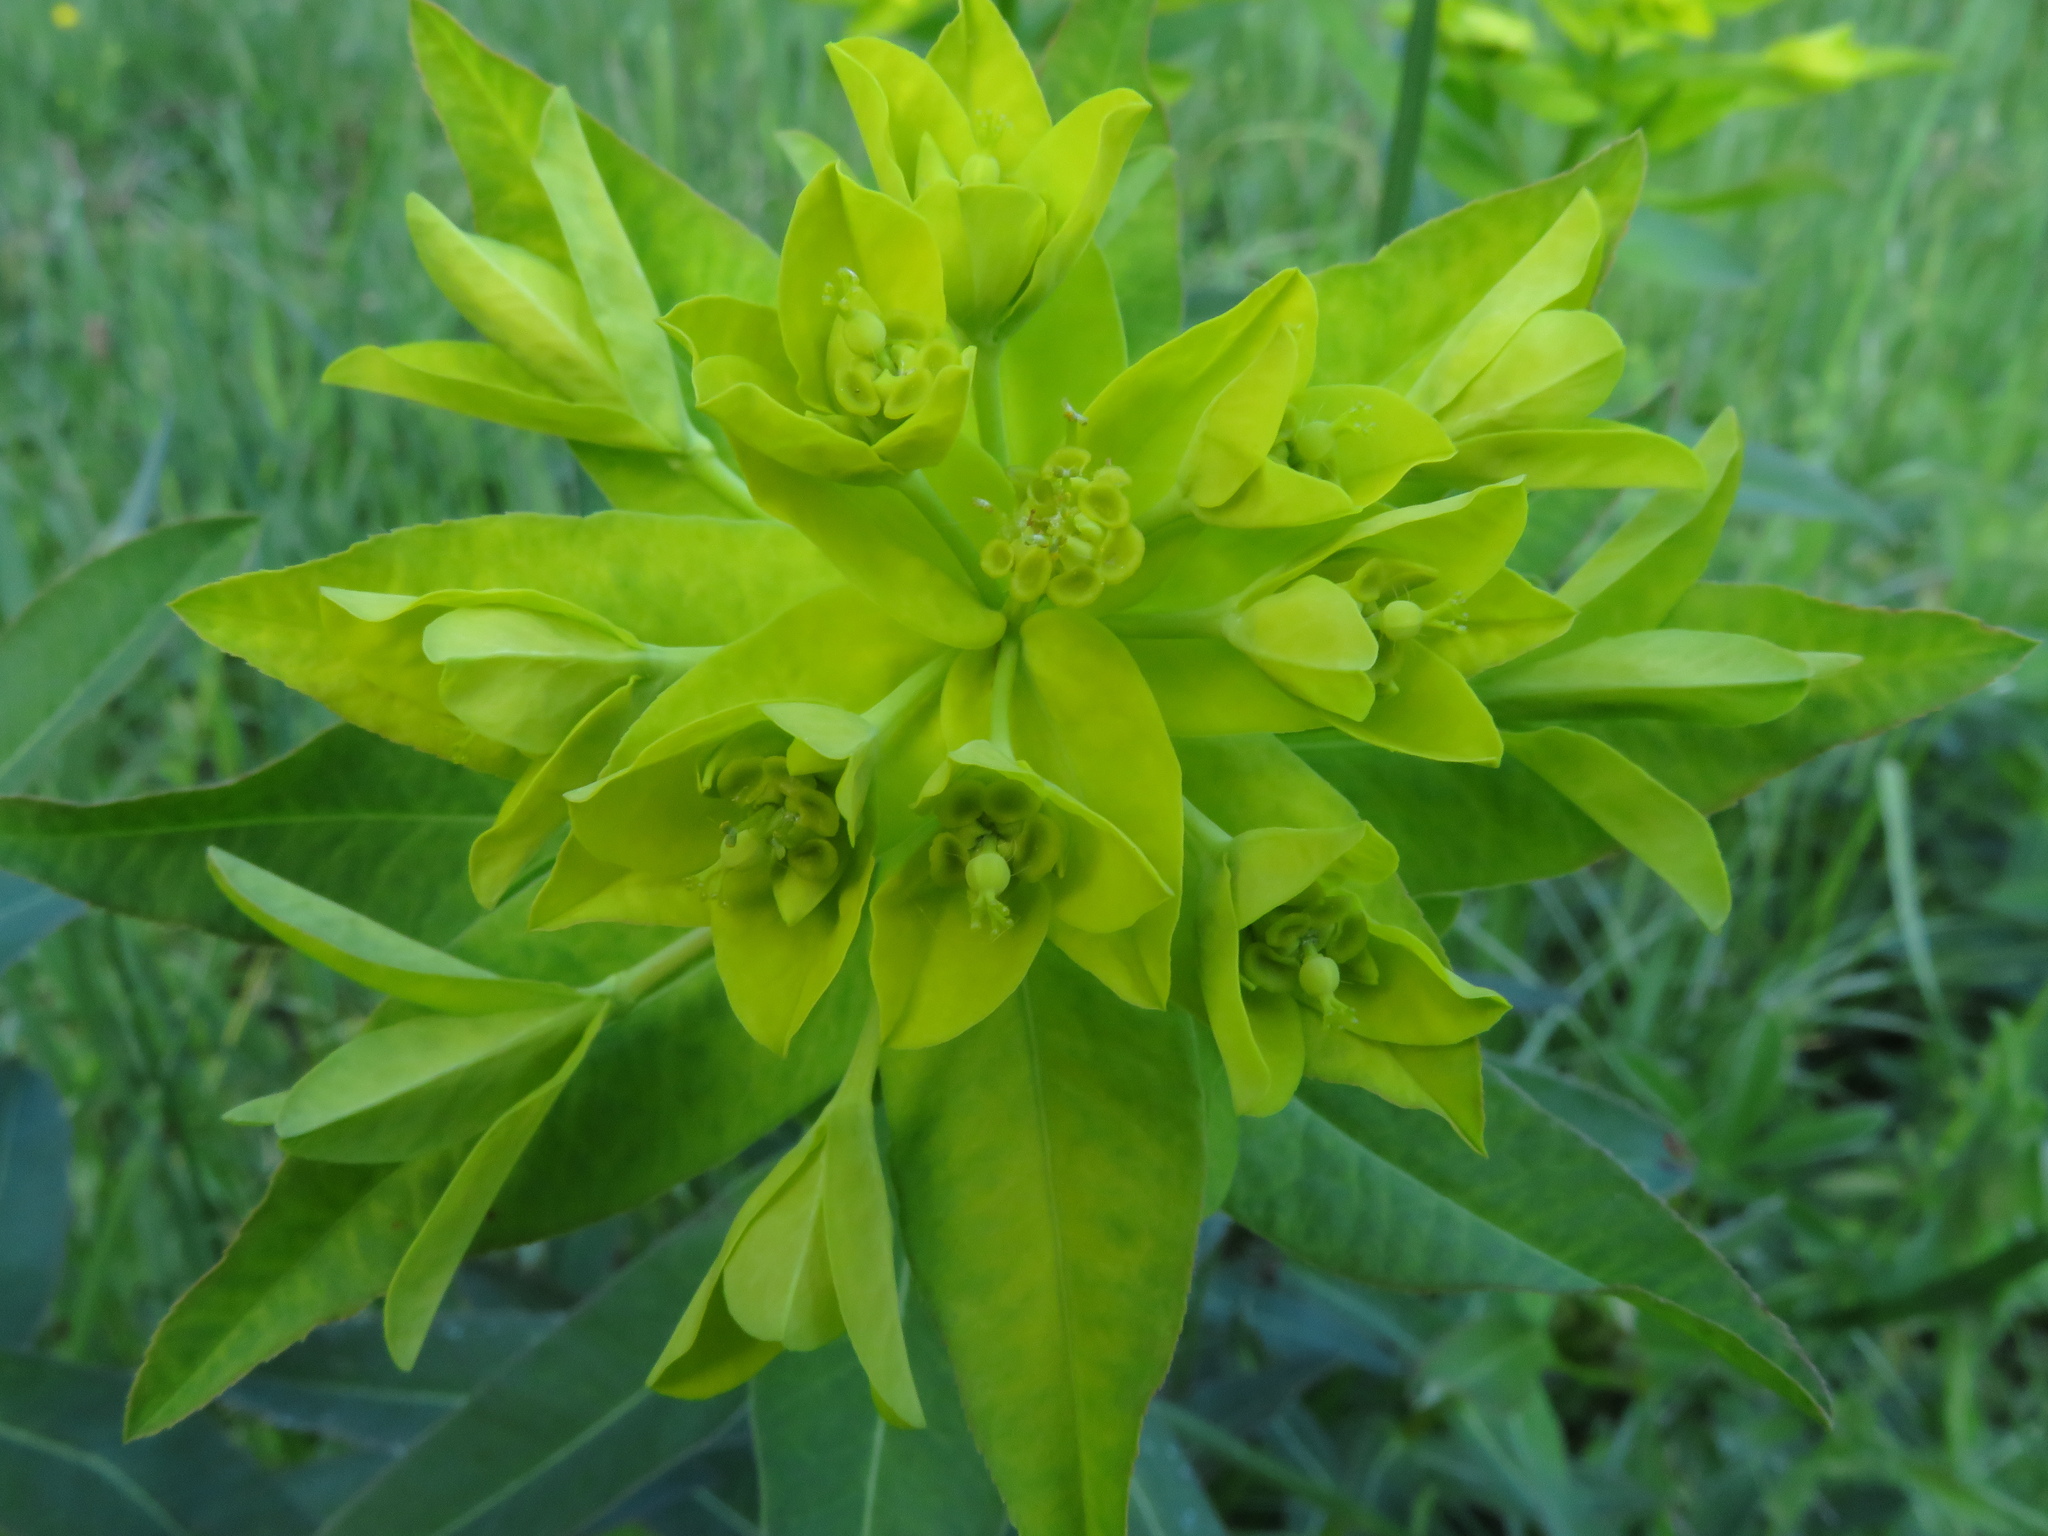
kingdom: Plantae
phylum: Tracheophyta
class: Magnoliopsida
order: Malpighiales
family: Euphorbiaceae
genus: Euphorbia
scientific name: Euphorbia illirica
